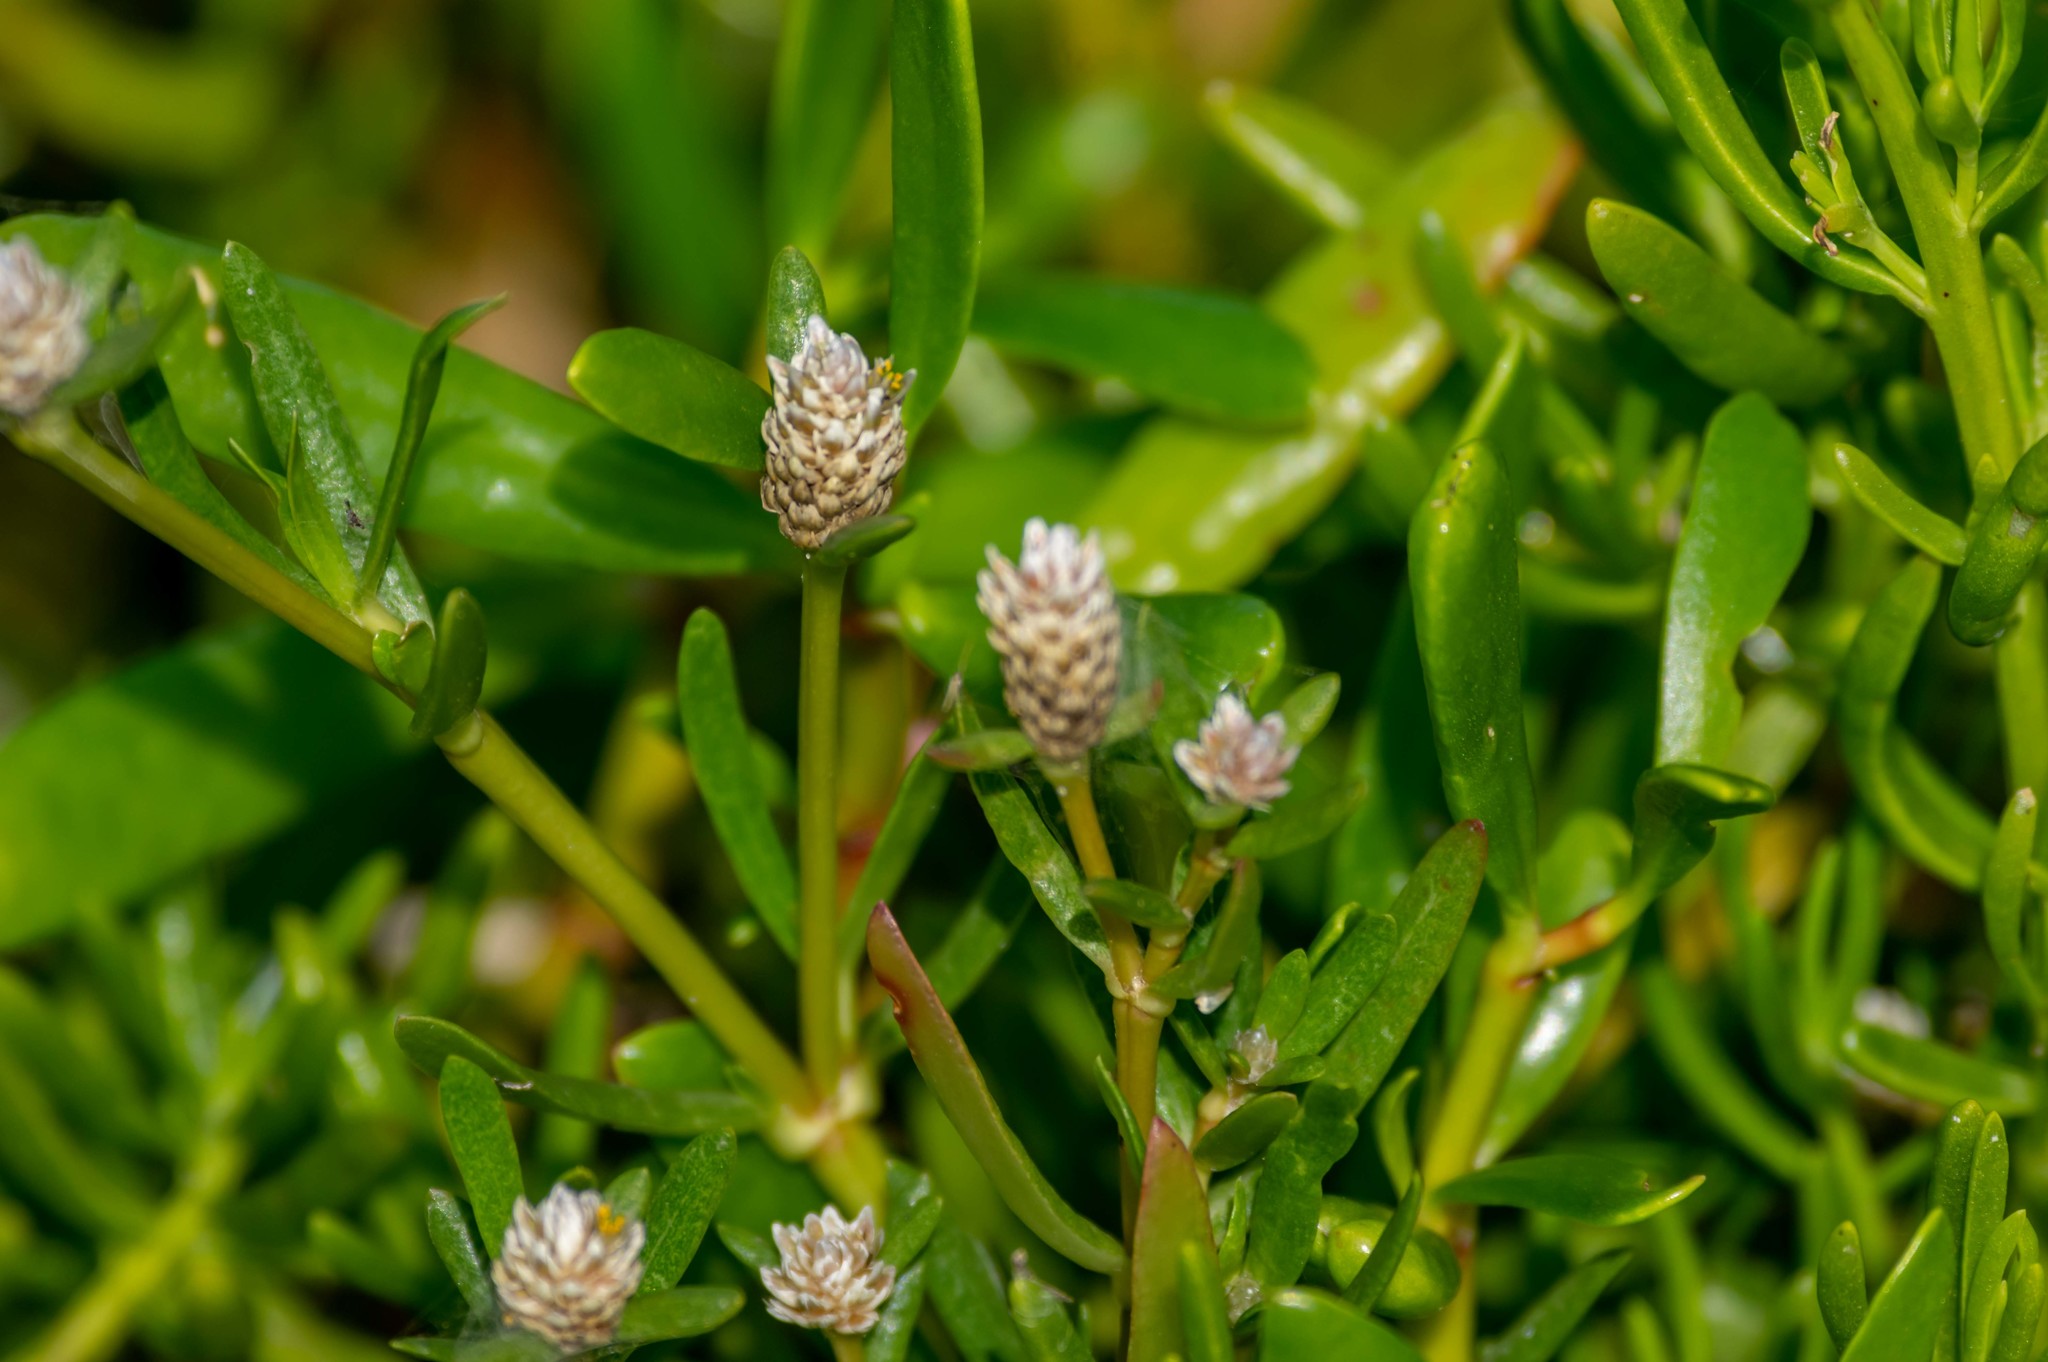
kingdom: Plantae
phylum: Tracheophyta
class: Magnoliopsida
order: Caryophyllales
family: Amaranthaceae
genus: Gomphrena
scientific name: Gomphrena vermicularis
